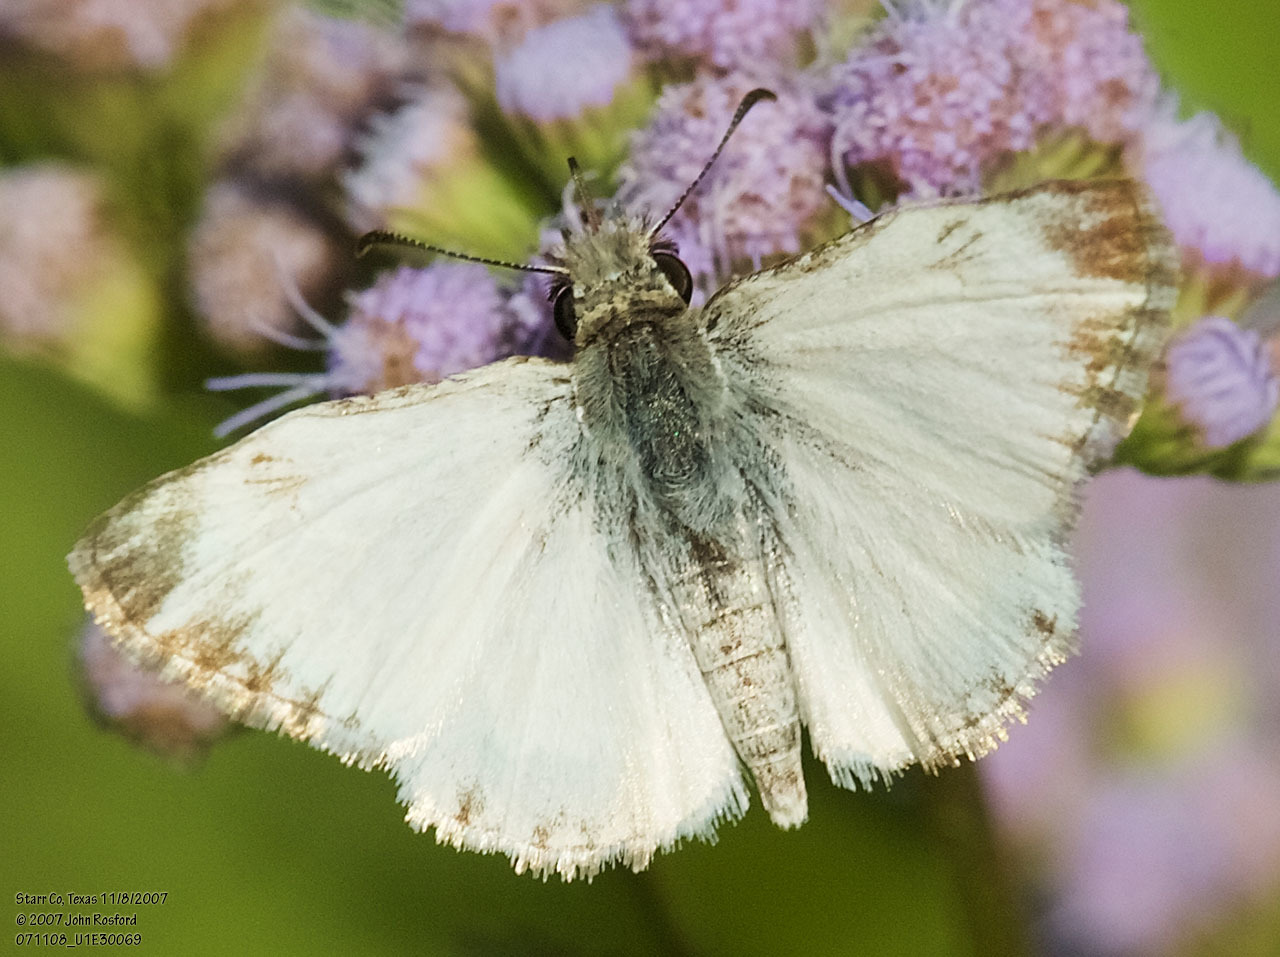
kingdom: Animalia
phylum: Arthropoda
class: Insecta
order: Lepidoptera
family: Hesperiidae
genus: Heliopetes
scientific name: Heliopetes macaira
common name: Turk's-cap white-skipper
